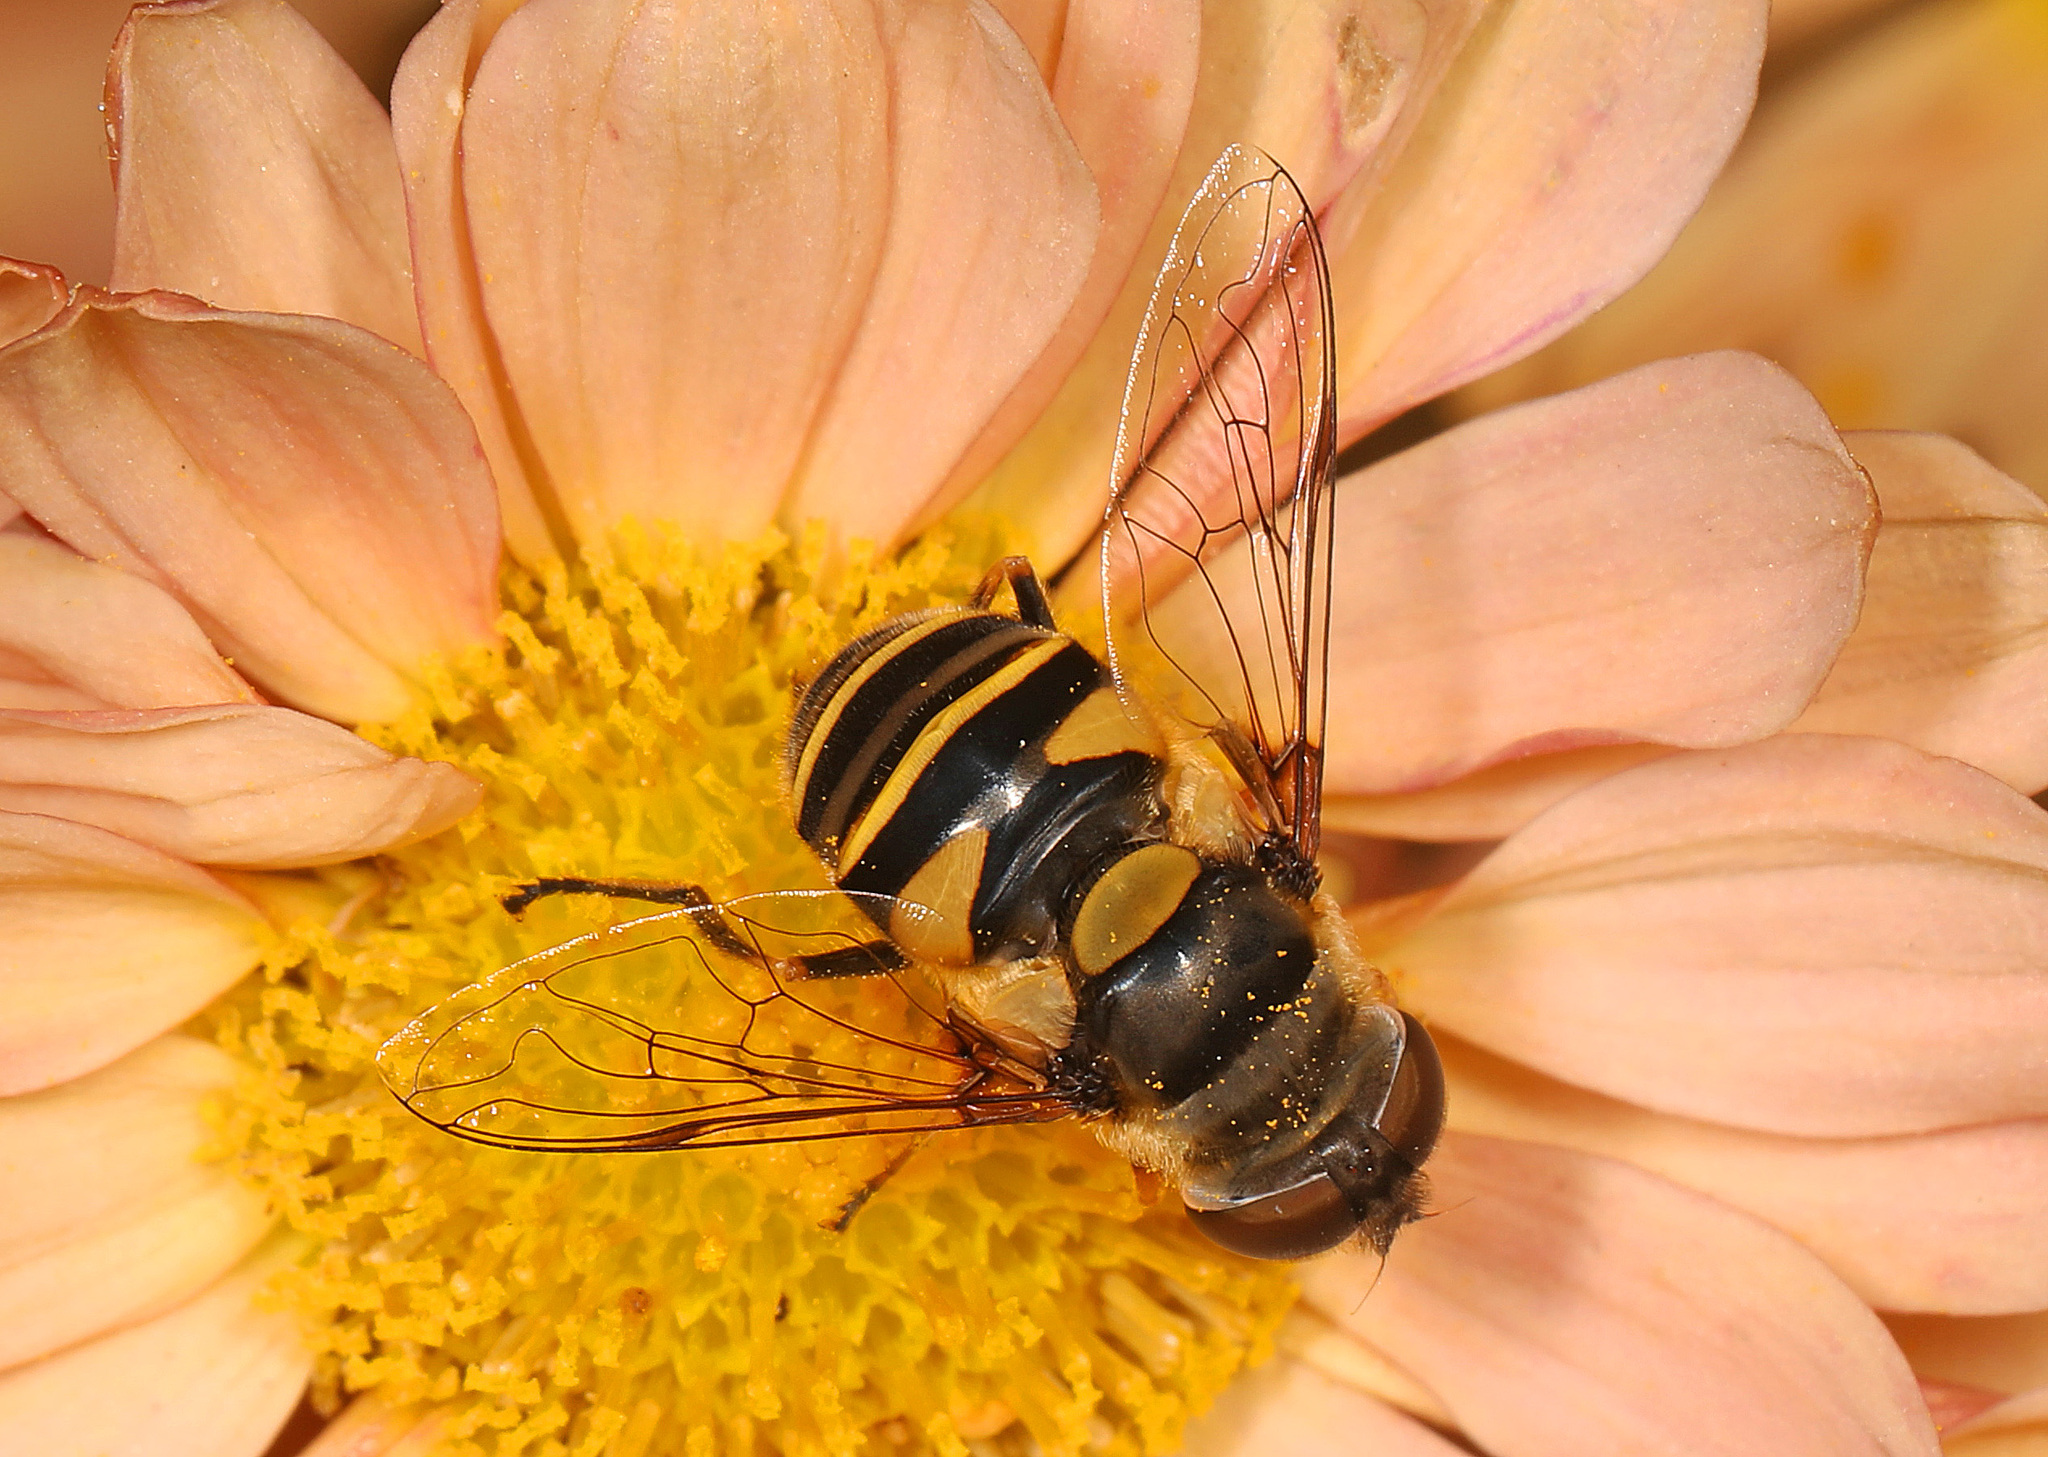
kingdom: Animalia
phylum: Arthropoda
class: Insecta
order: Diptera
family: Syrphidae
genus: Eristalis
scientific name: Eristalis transversa
